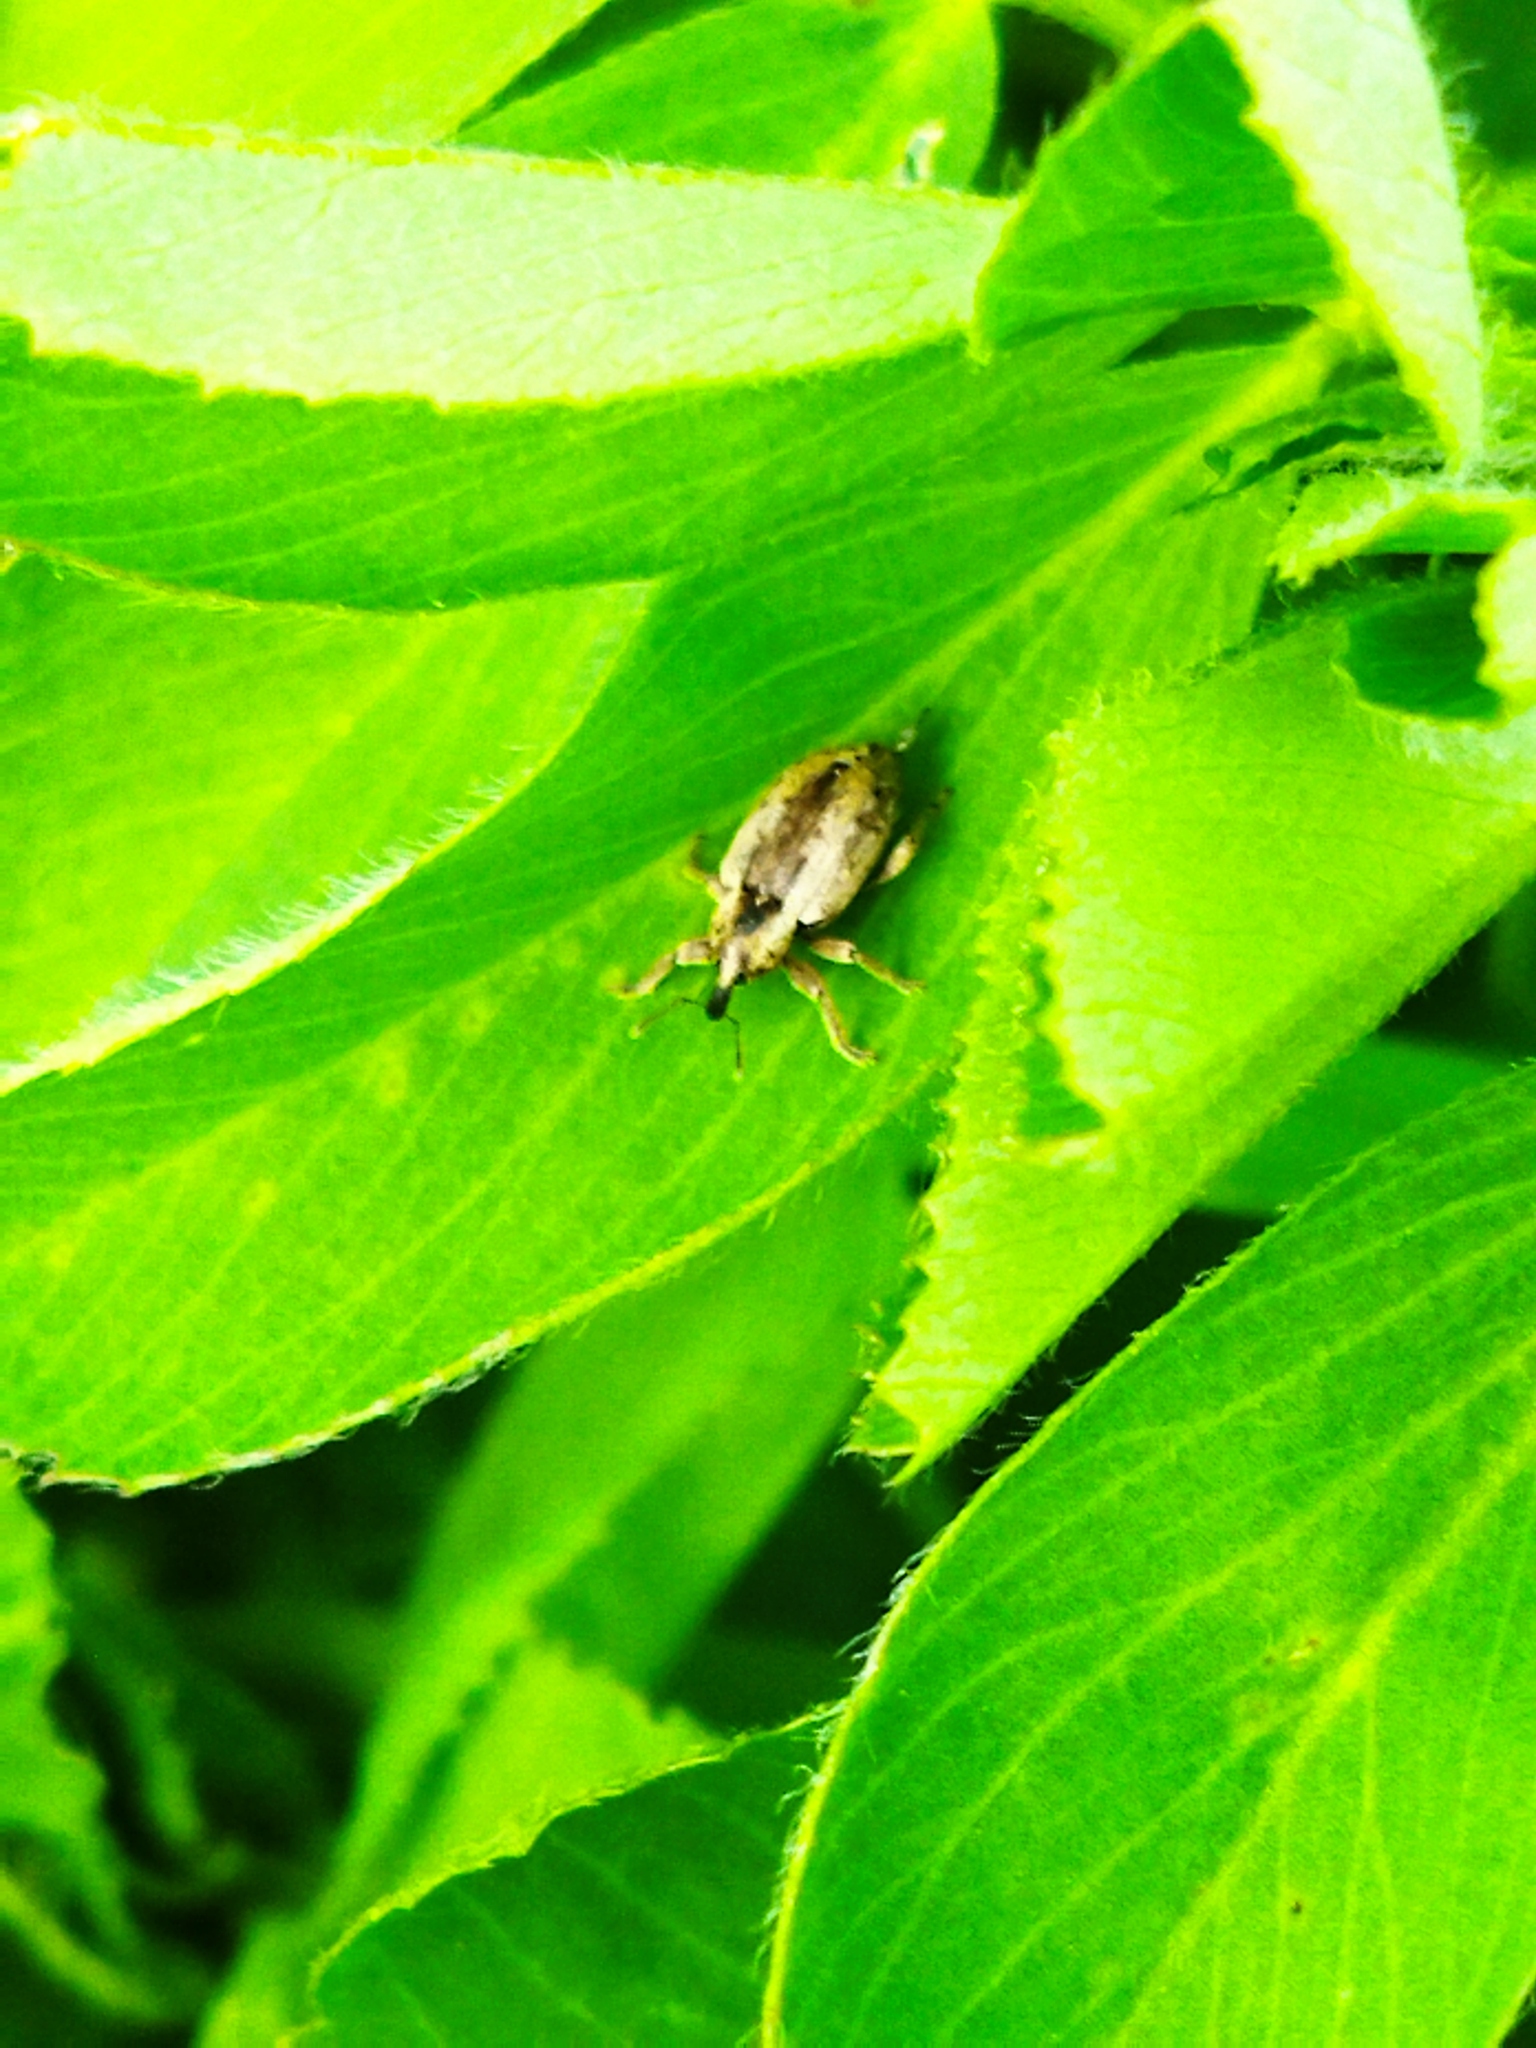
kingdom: Animalia
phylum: Arthropoda
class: Insecta
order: Coleoptera
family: Curculionidae
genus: Hypera
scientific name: Hypera postica
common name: Weevil
